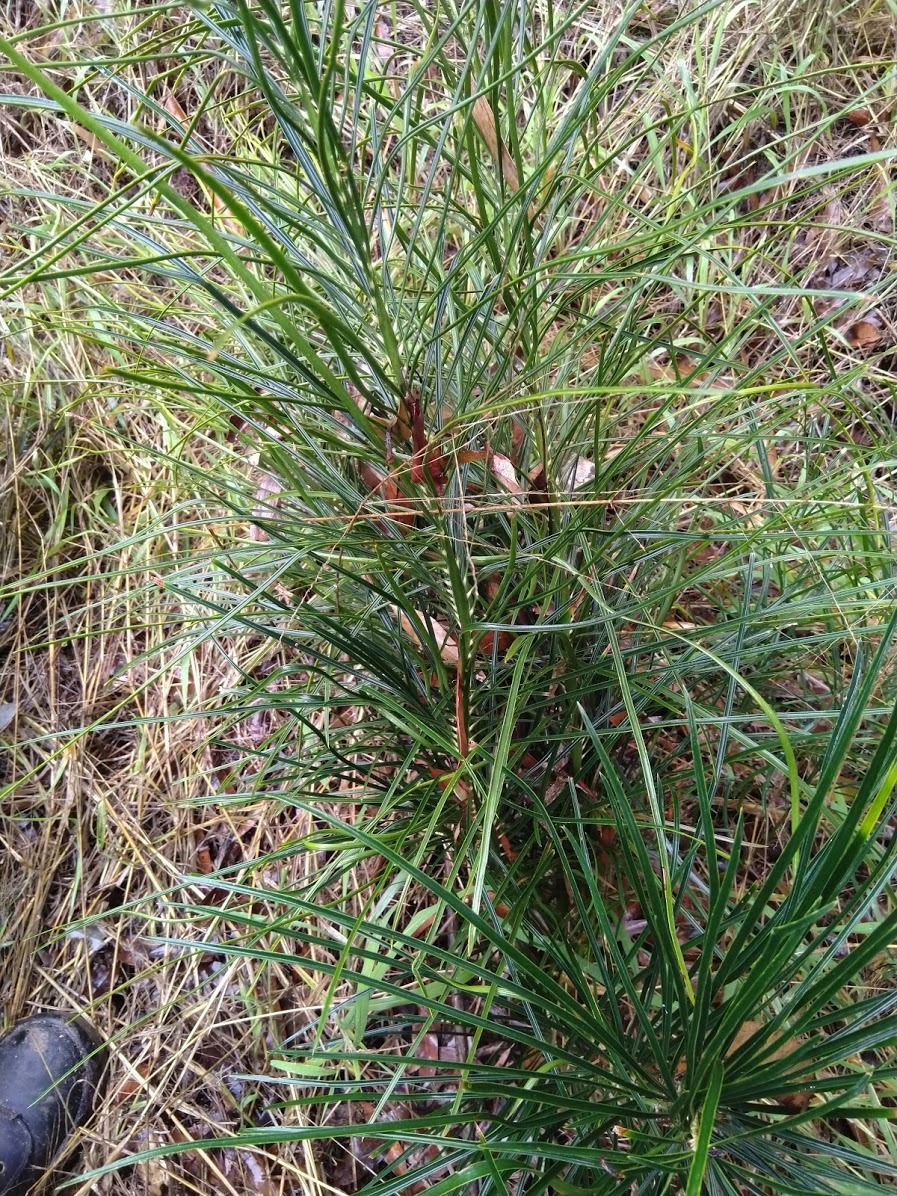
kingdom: Plantae
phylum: Tracheophyta
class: Cycadopsida
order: Cycadales
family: Zamiaceae
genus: Macrozamia
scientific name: Macrozamia pauli-guilielmi
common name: Pineapple zamia
